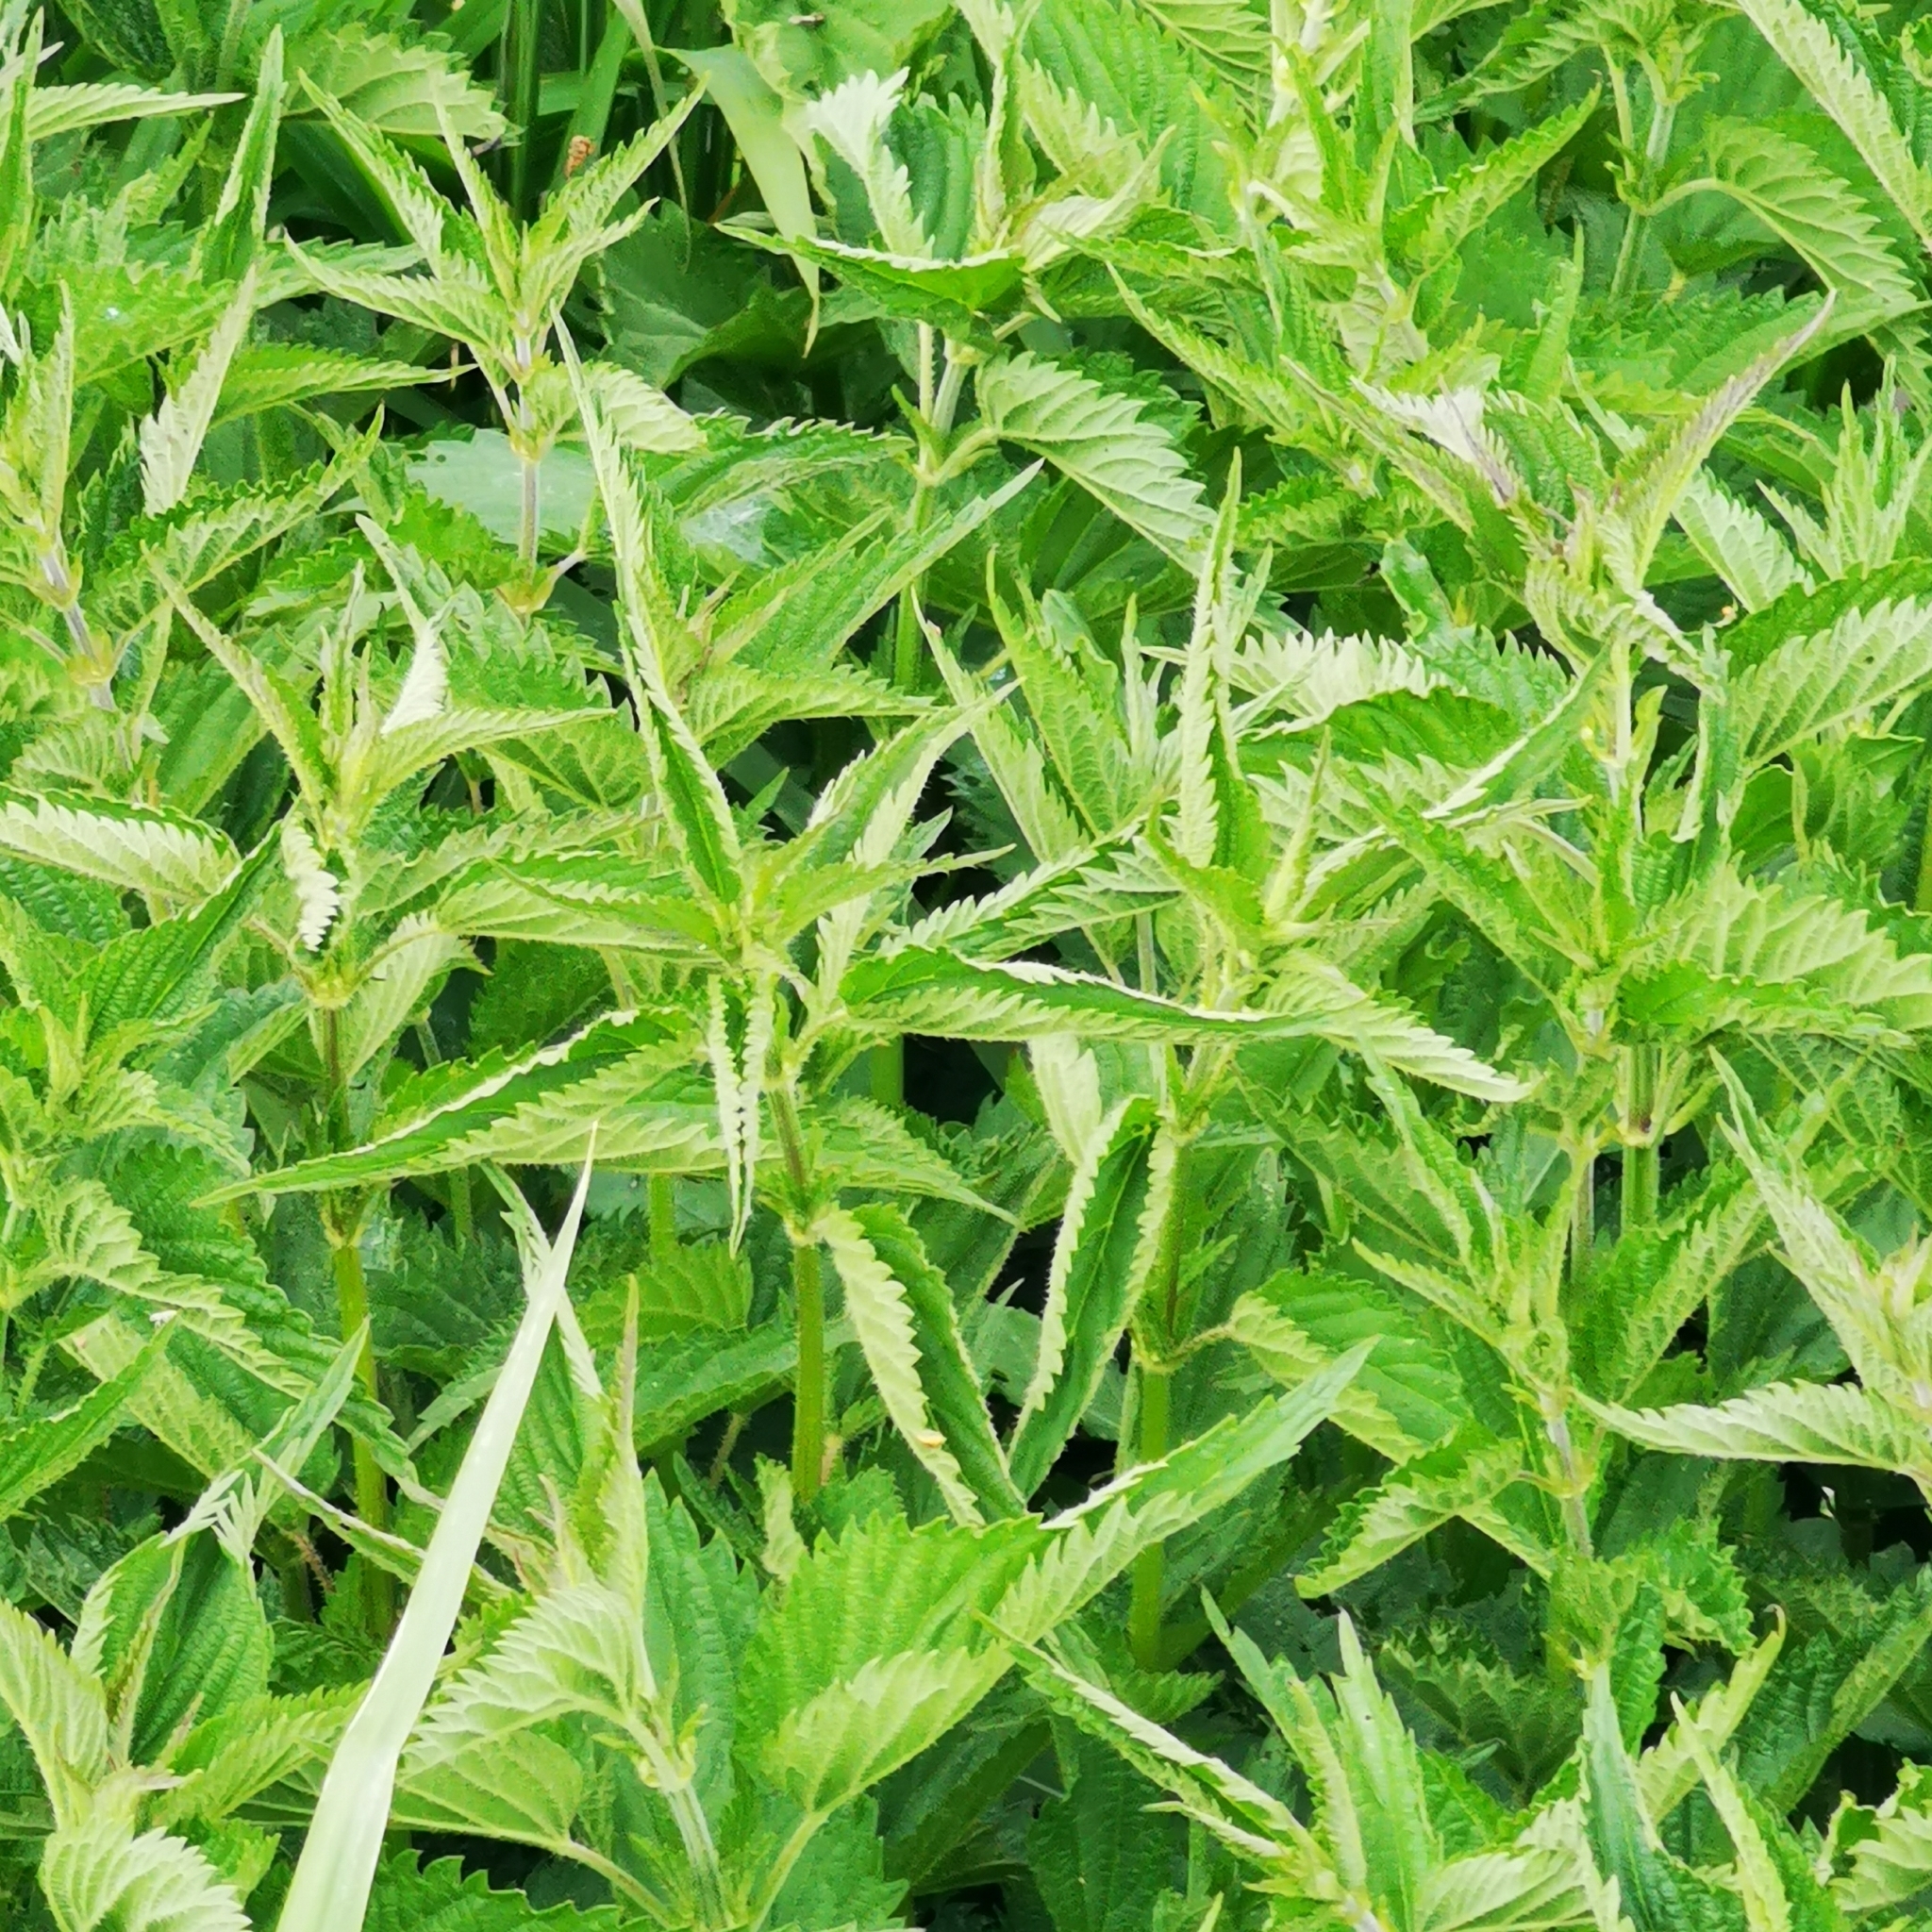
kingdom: Plantae
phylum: Tracheophyta
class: Magnoliopsida
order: Rosales
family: Urticaceae
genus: Urtica
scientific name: Urtica dioica
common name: Common nettle
